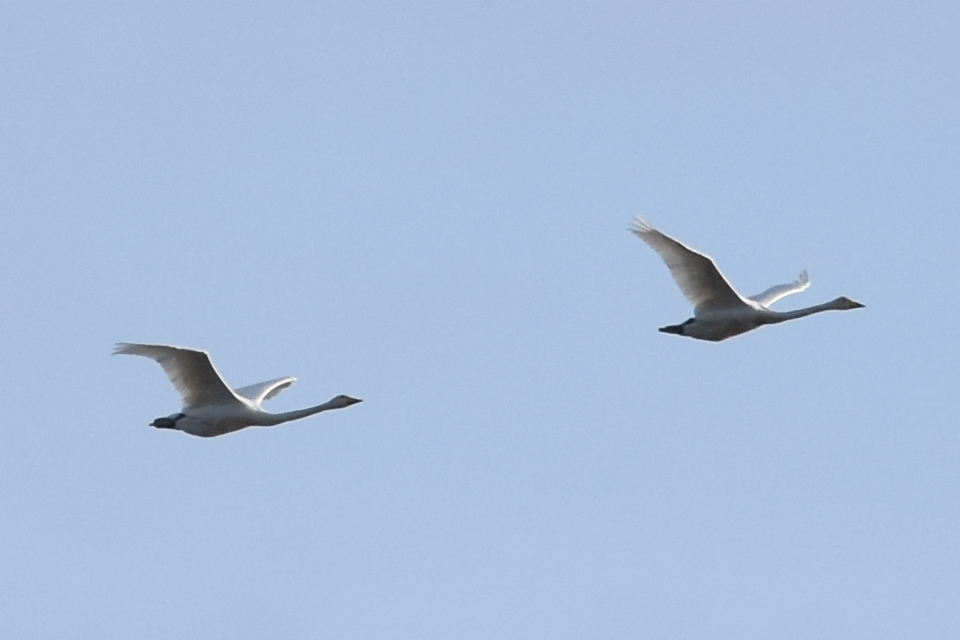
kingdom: Animalia
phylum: Chordata
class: Aves
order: Anseriformes
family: Anatidae
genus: Cygnus
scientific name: Cygnus cygnus
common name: Whooper swan
